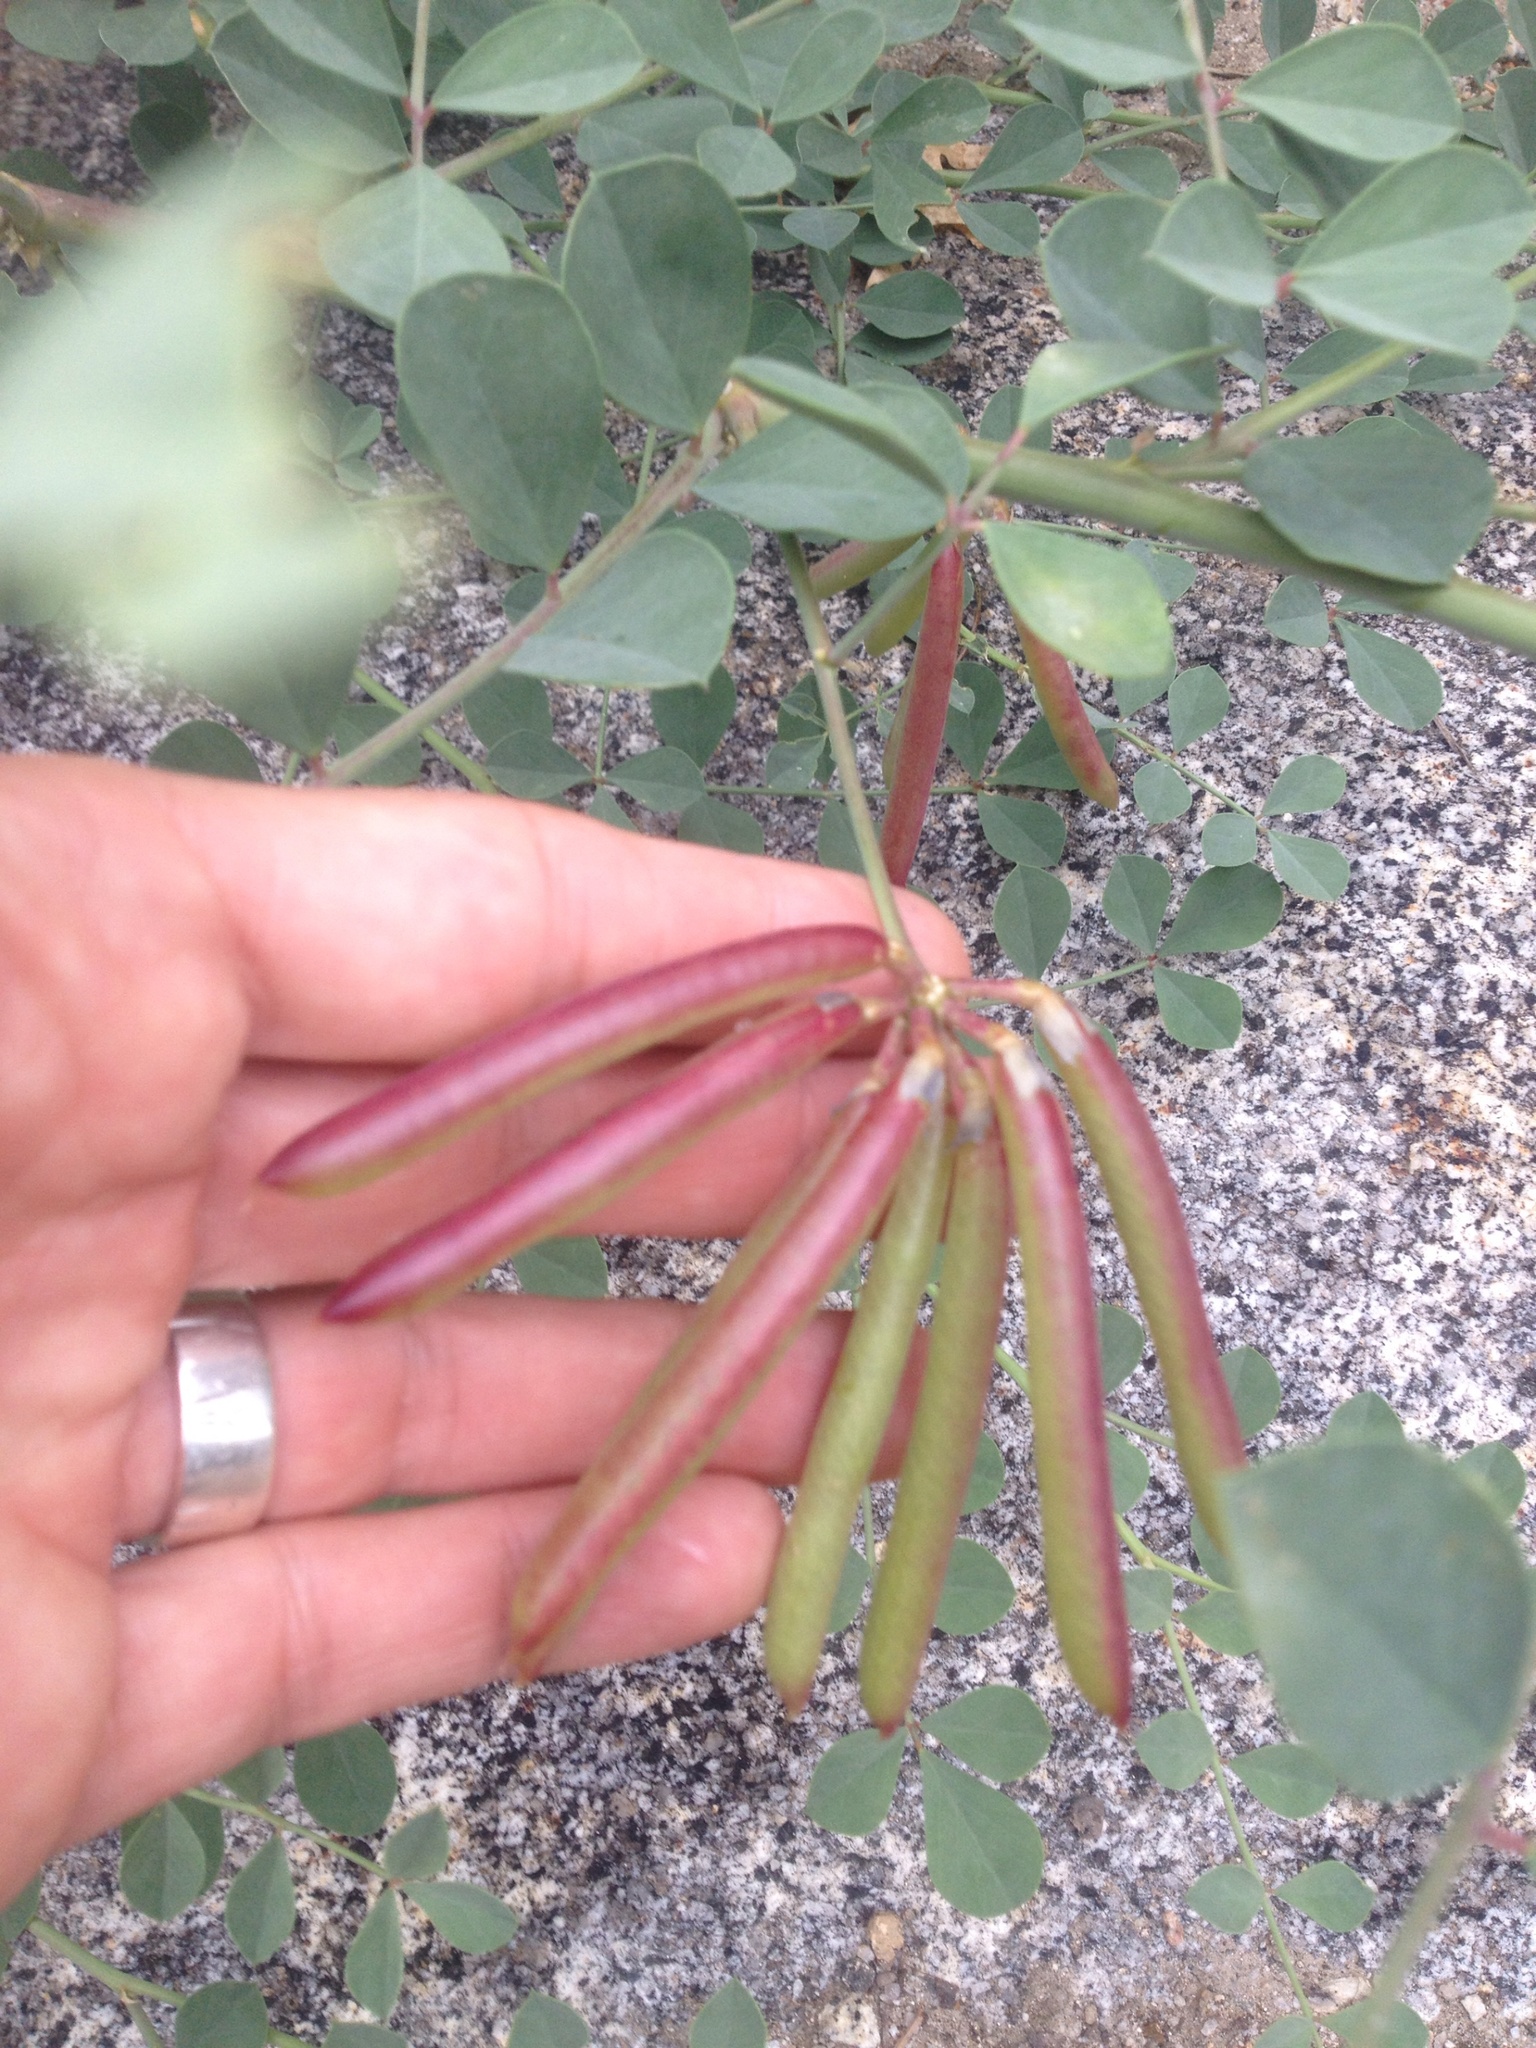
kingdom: Plantae
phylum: Tracheophyta
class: Magnoliopsida
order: Fabales
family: Fabaceae
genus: Hosackia
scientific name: Hosackia crassifolia
